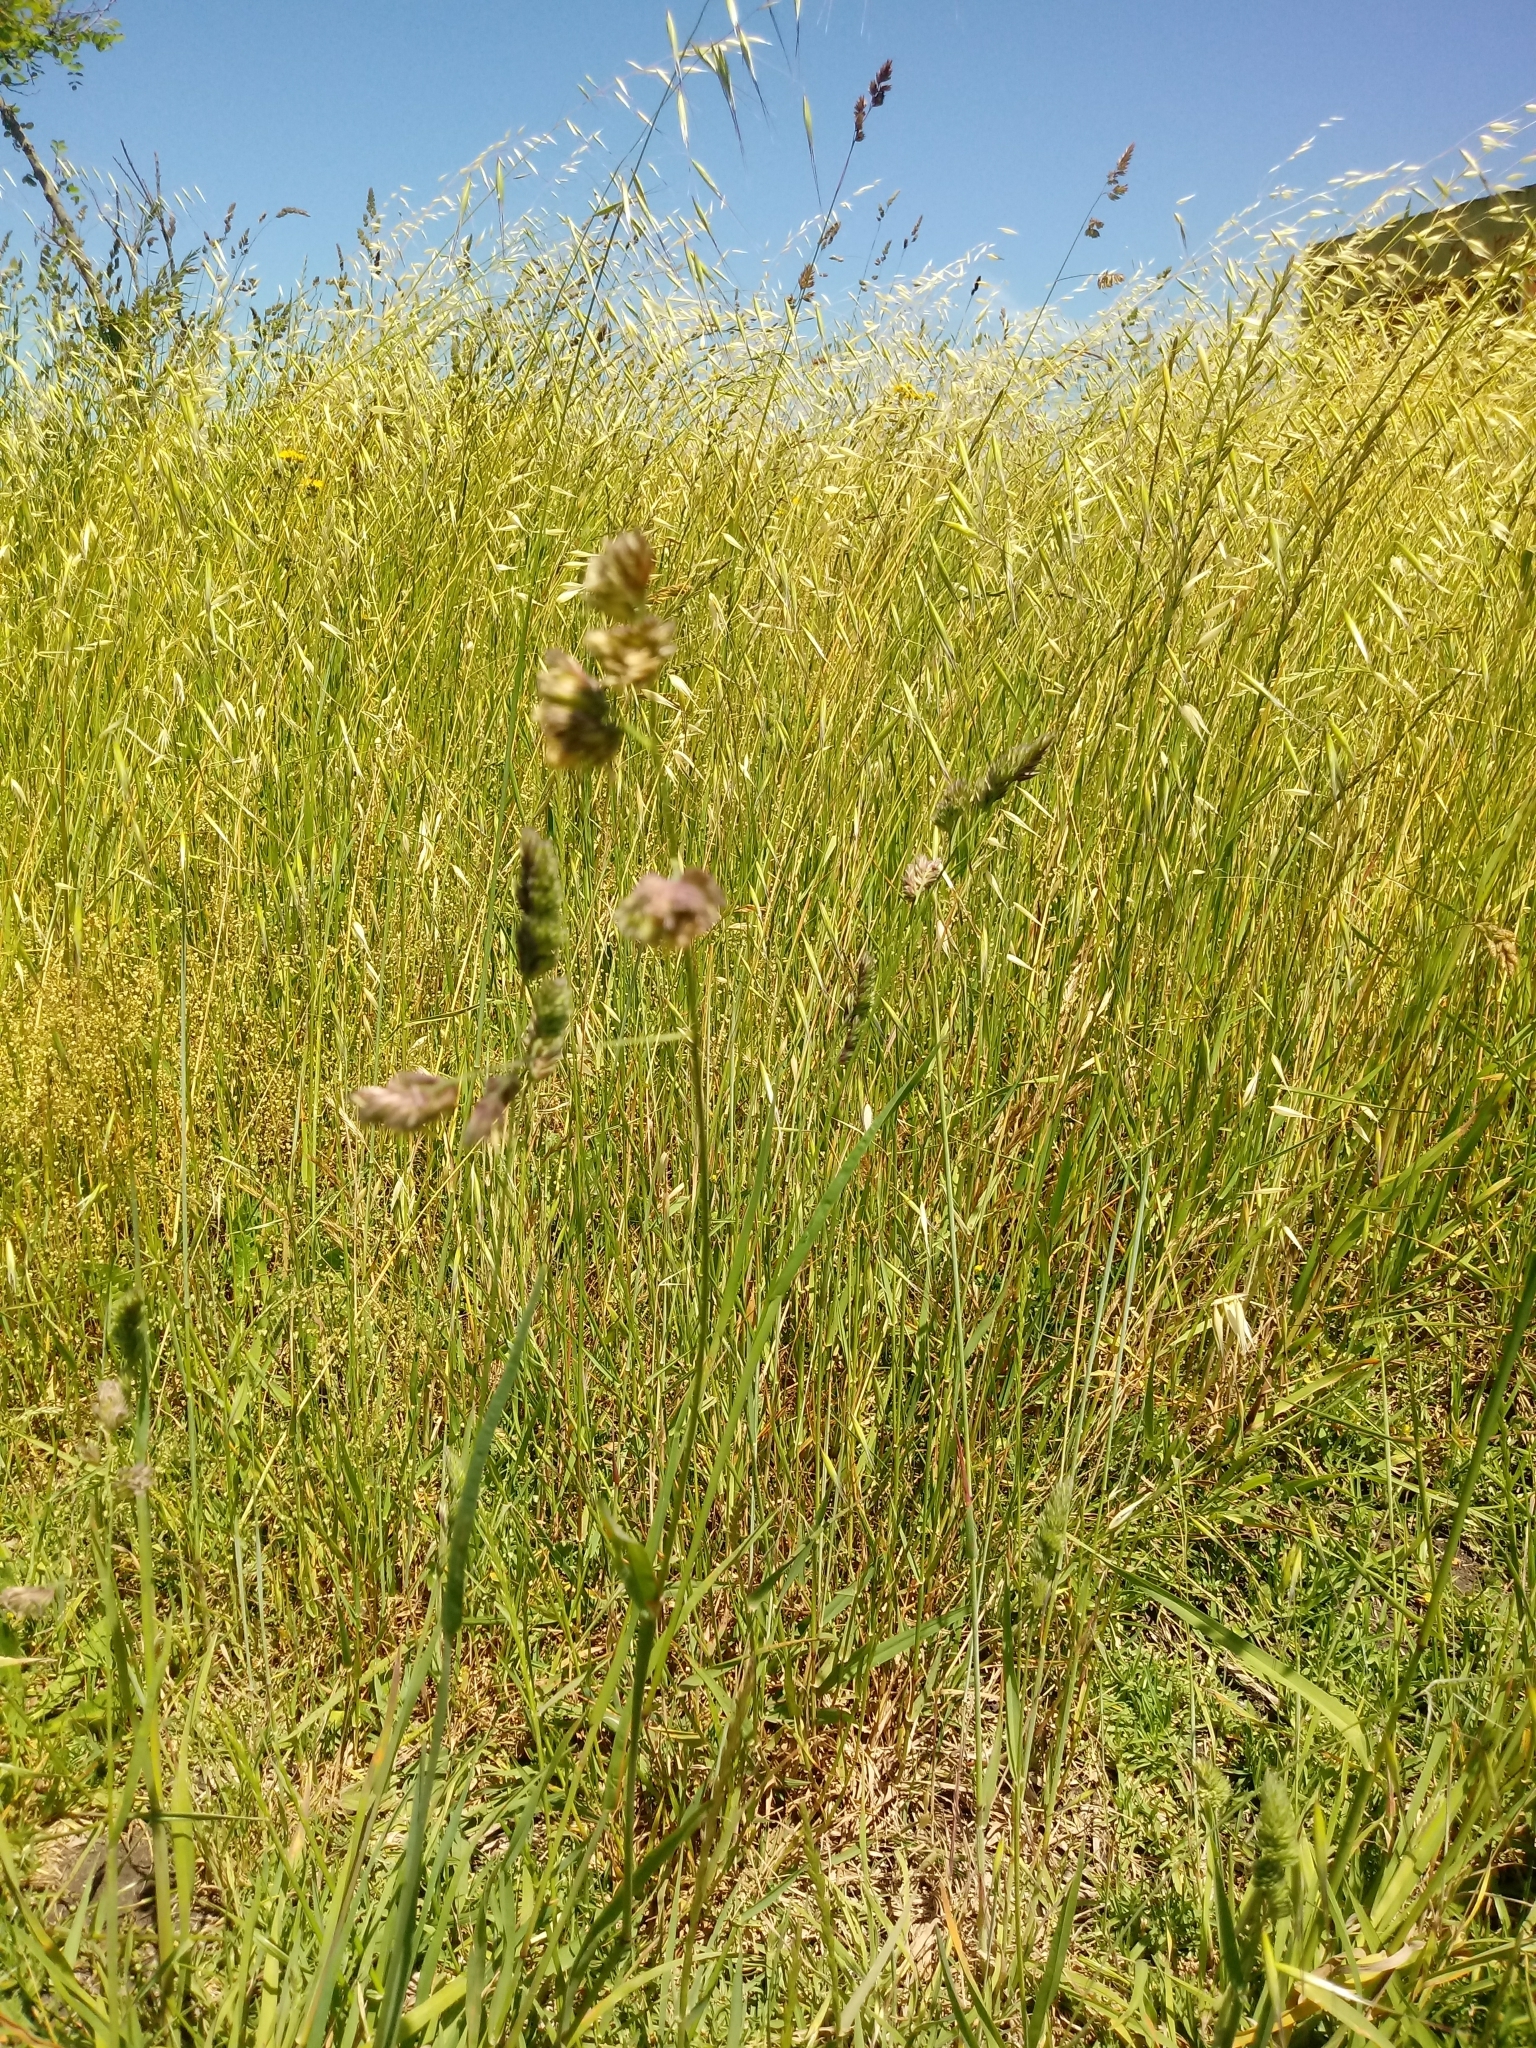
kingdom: Plantae
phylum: Tracheophyta
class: Liliopsida
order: Poales
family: Poaceae
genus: Dactylis
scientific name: Dactylis glomerata
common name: Orchardgrass
